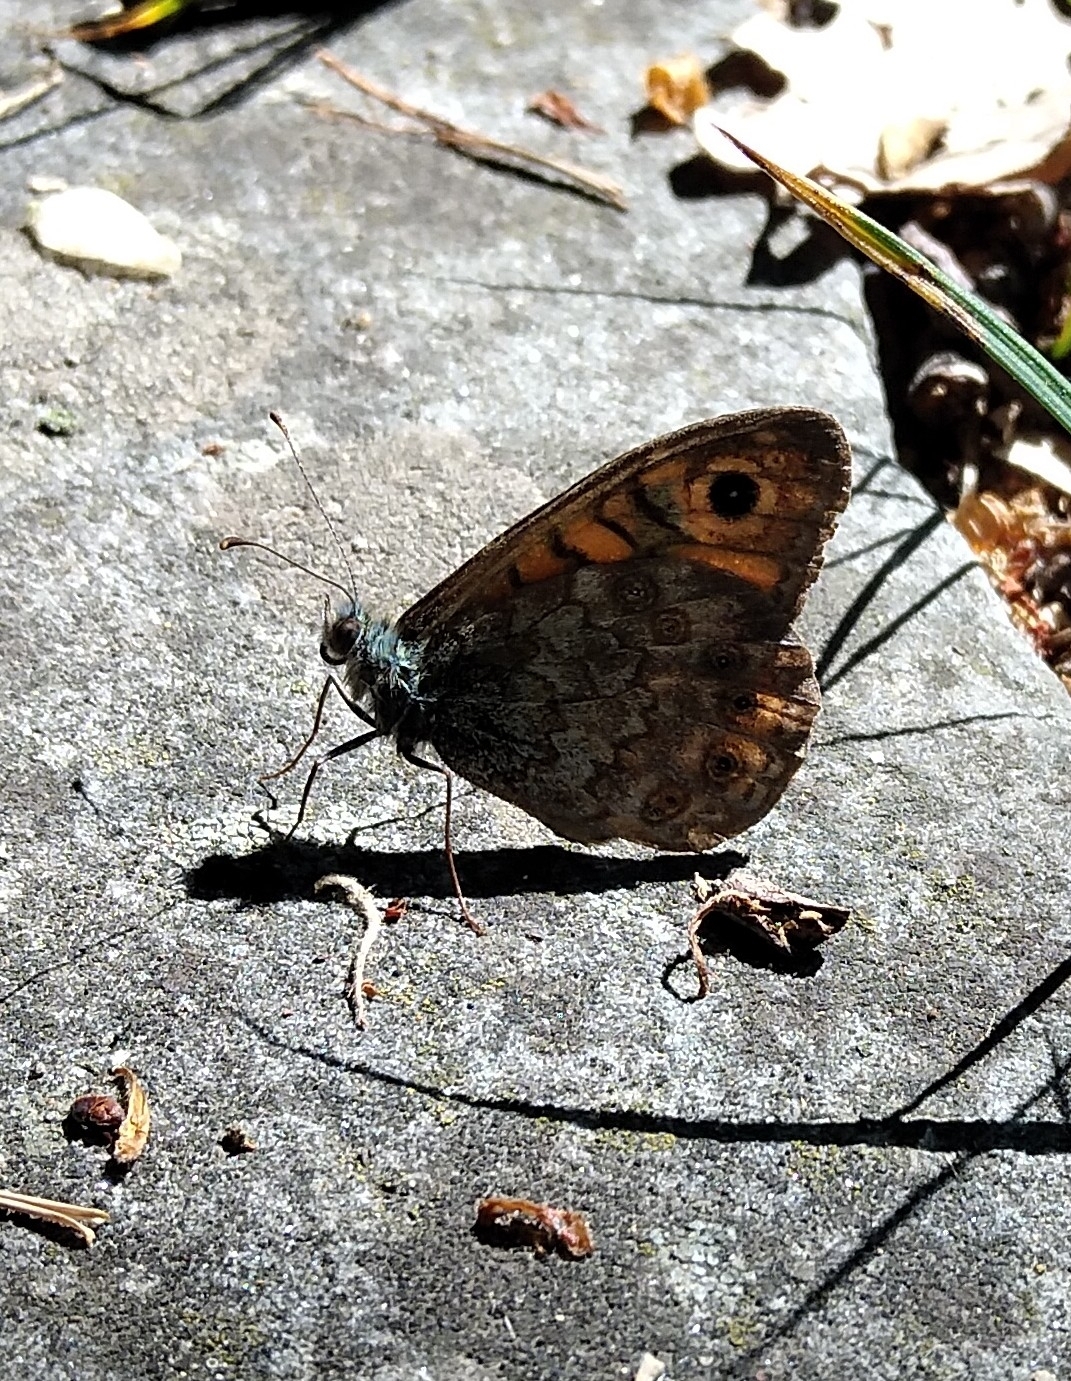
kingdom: Animalia
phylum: Arthropoda
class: Insecta
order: Lepidoptera
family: Nymphalidae
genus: Pararge
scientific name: Pararge Lasiommata megera
